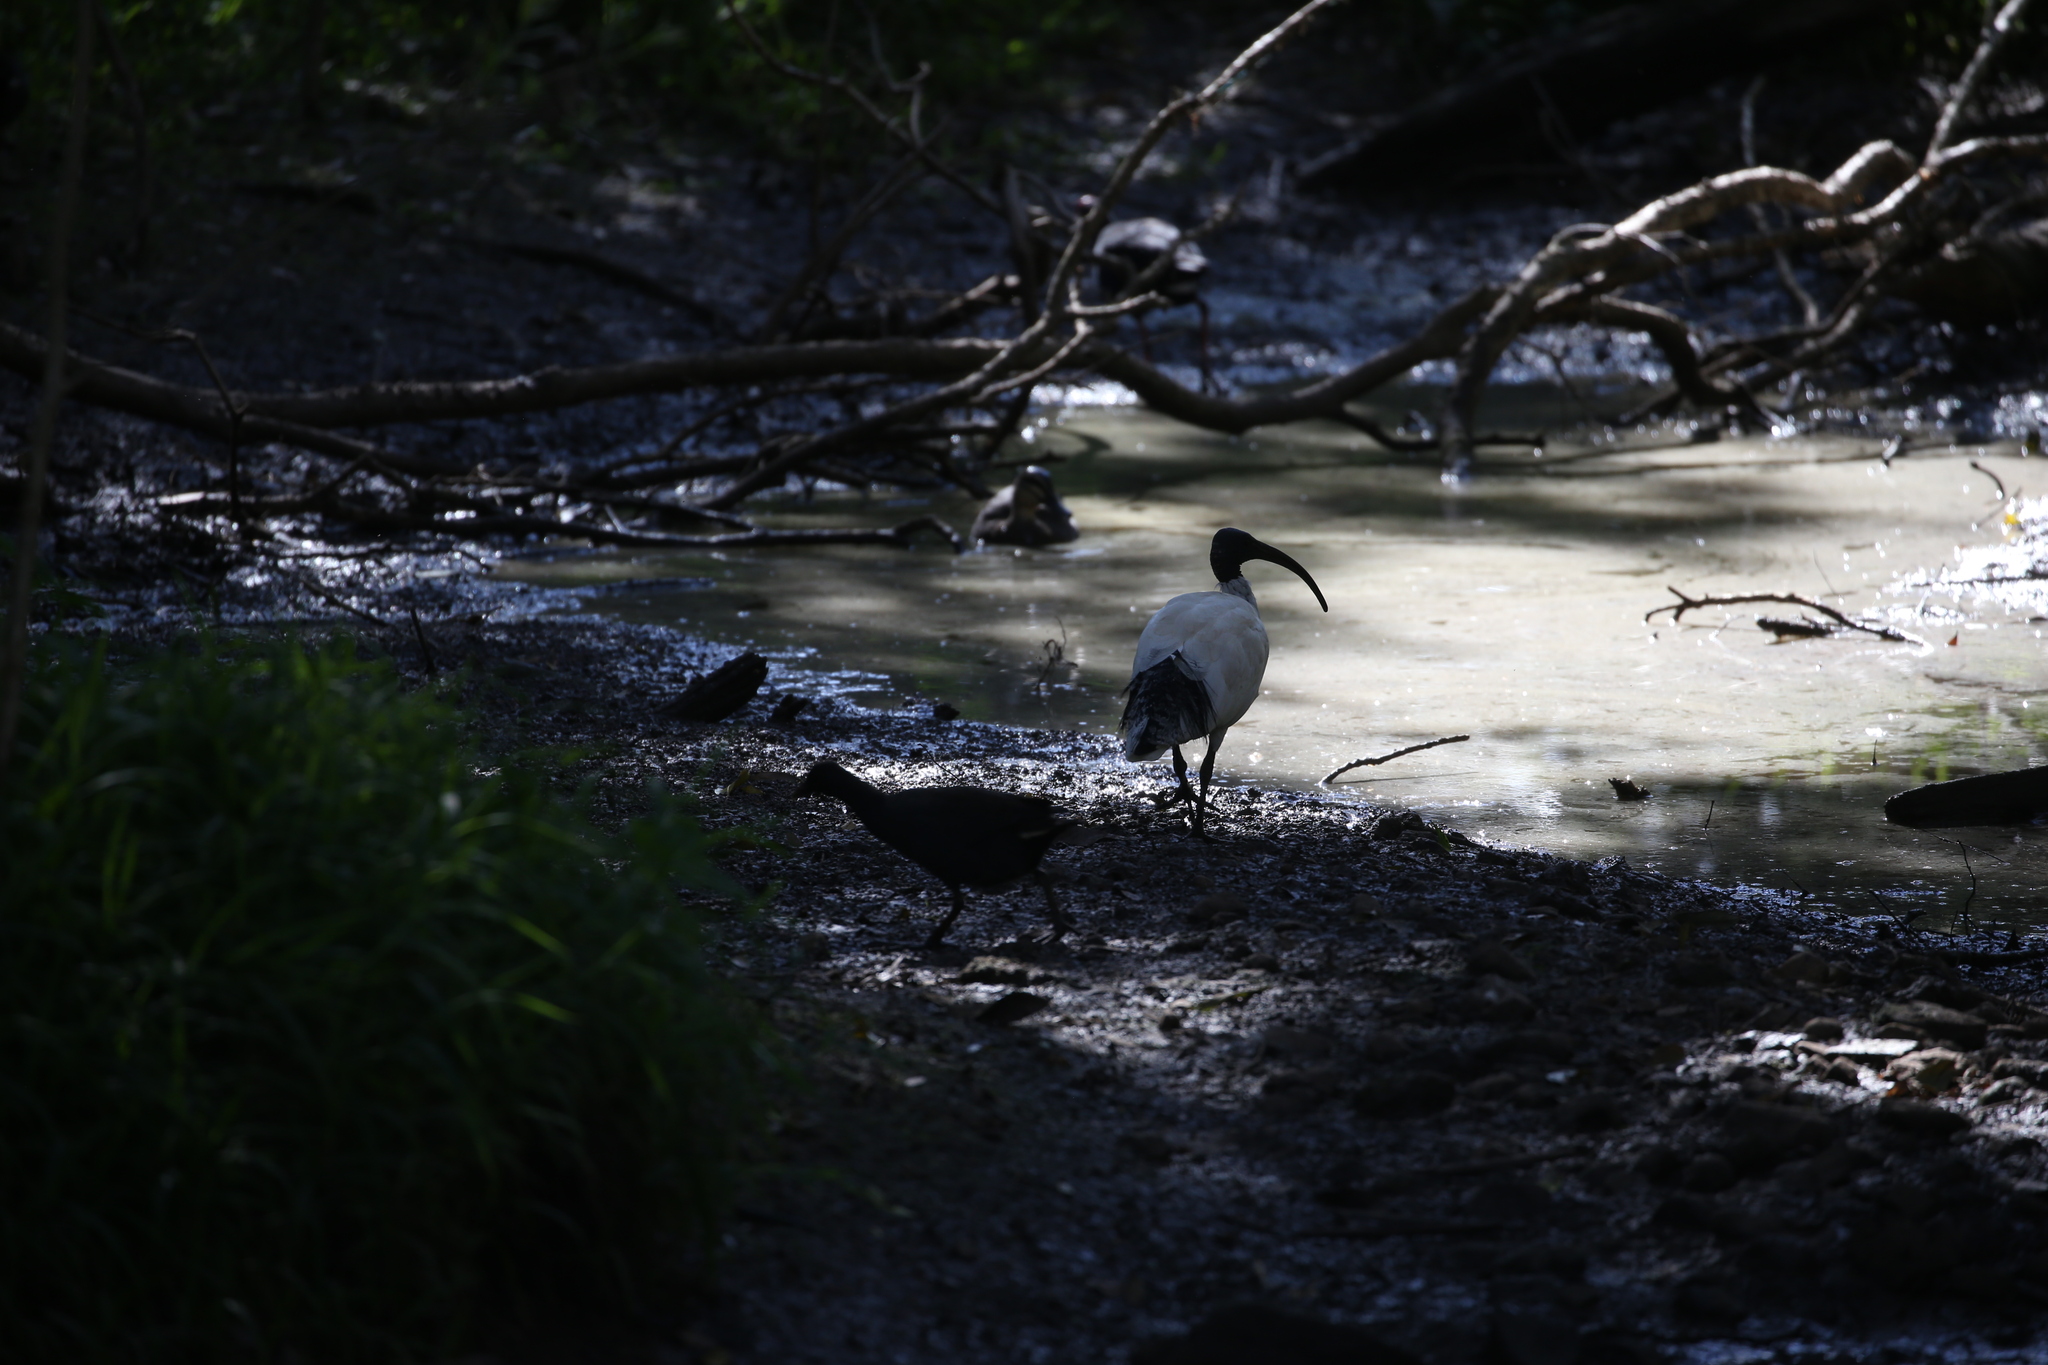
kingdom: Animalia
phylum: Chordata
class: Aves
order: Pelecaniformes
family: Threskiornithidae
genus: Threskiornis
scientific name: Threskiornis molucca
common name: Australian white ibis
